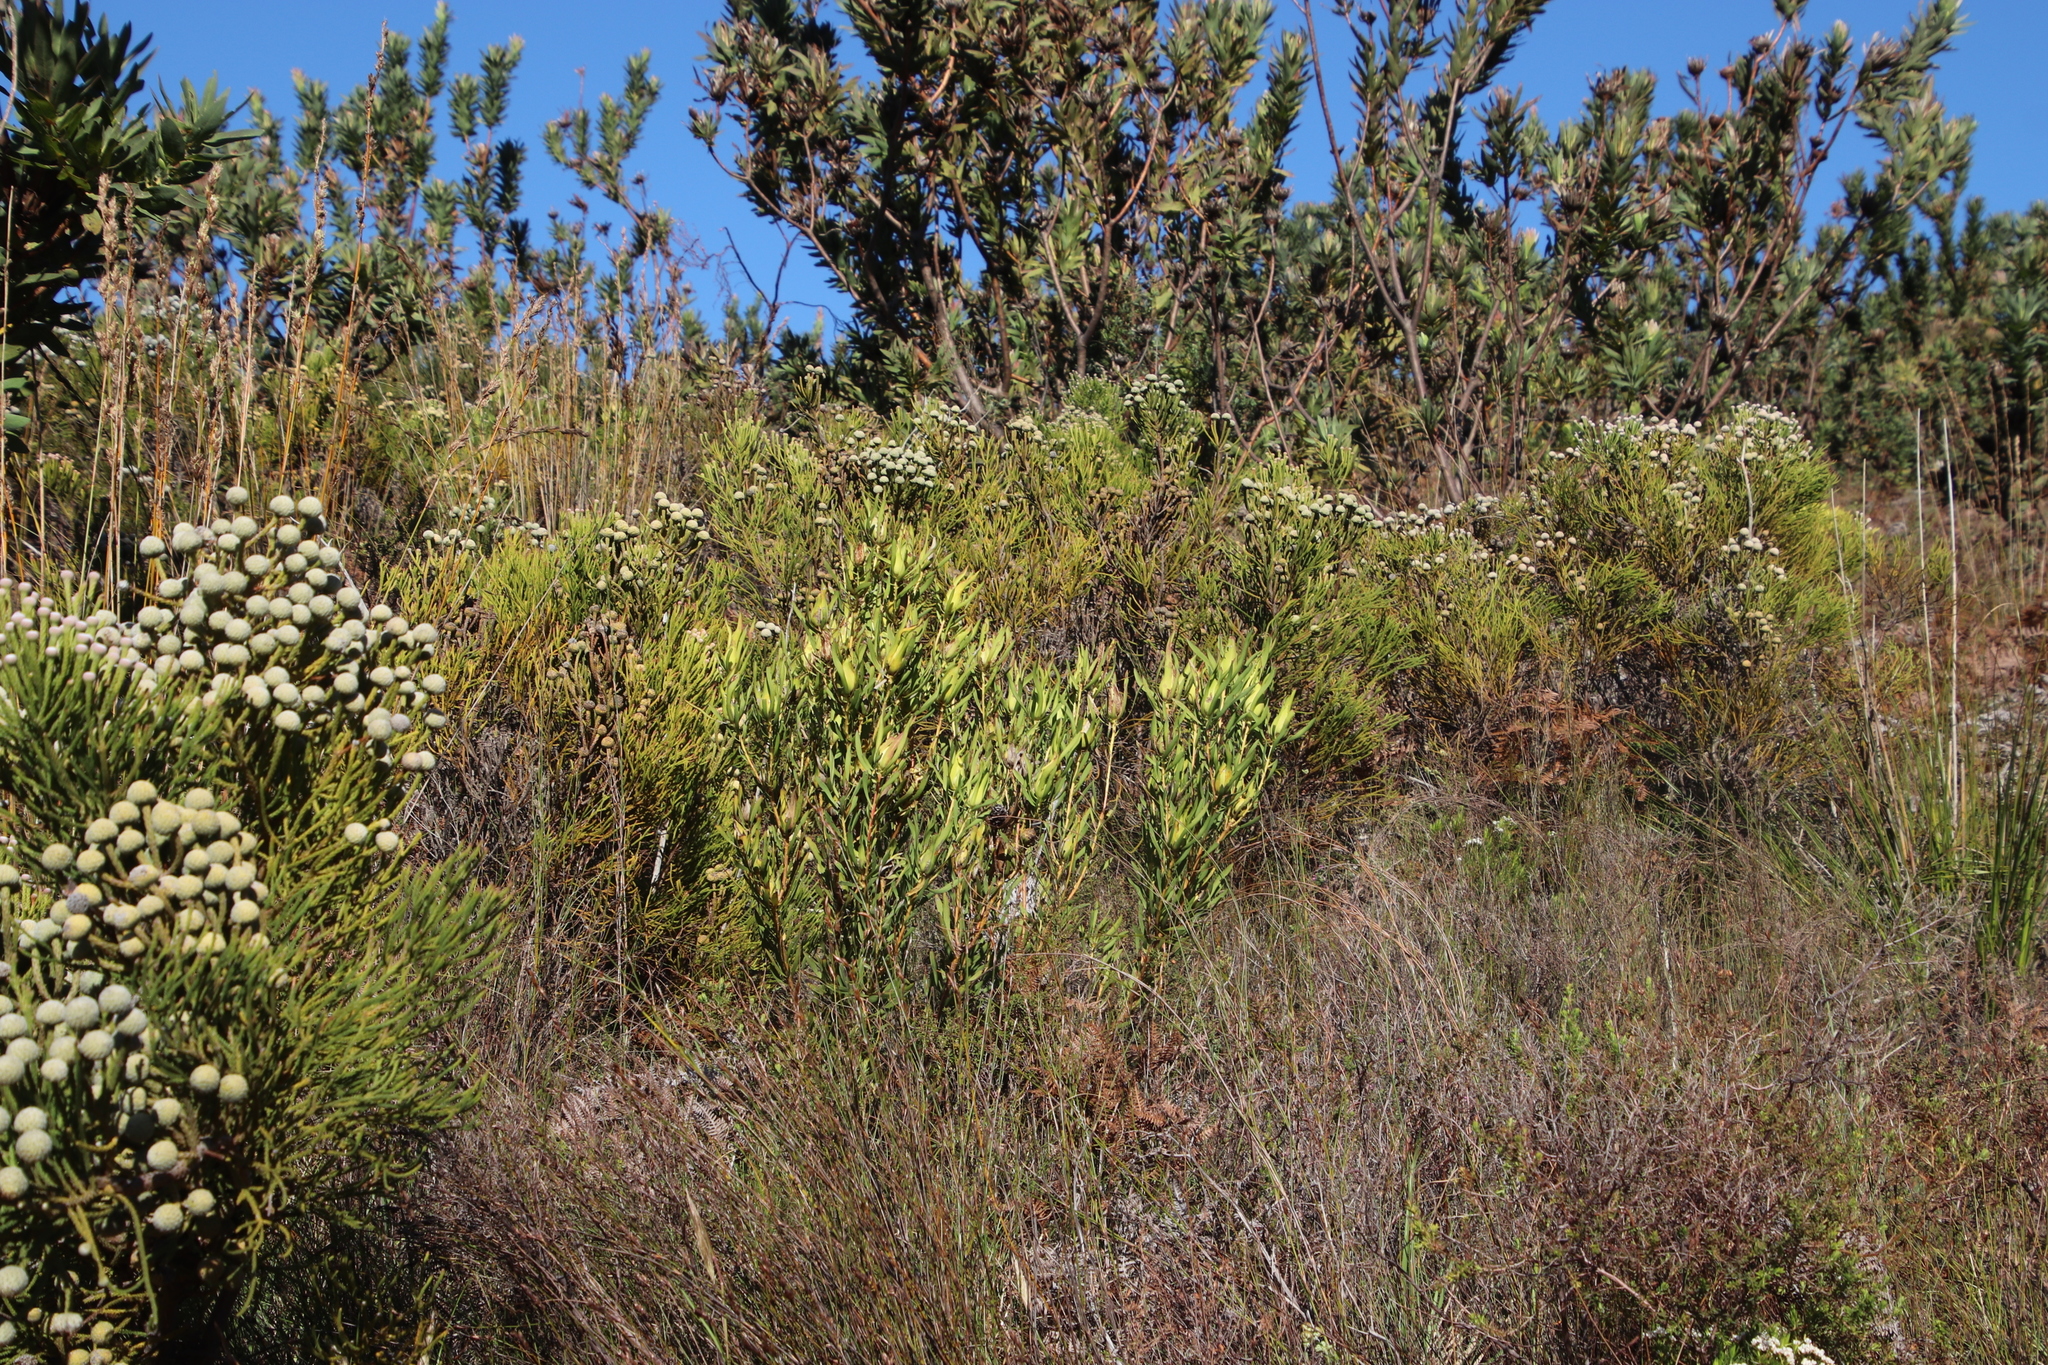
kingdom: Plantae
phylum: Tracheophyta
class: Magnoliopsida
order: Proteales
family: Proteaceae
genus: Leucadendron
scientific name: Leucadendron salignum
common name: Common sunshine conebush
